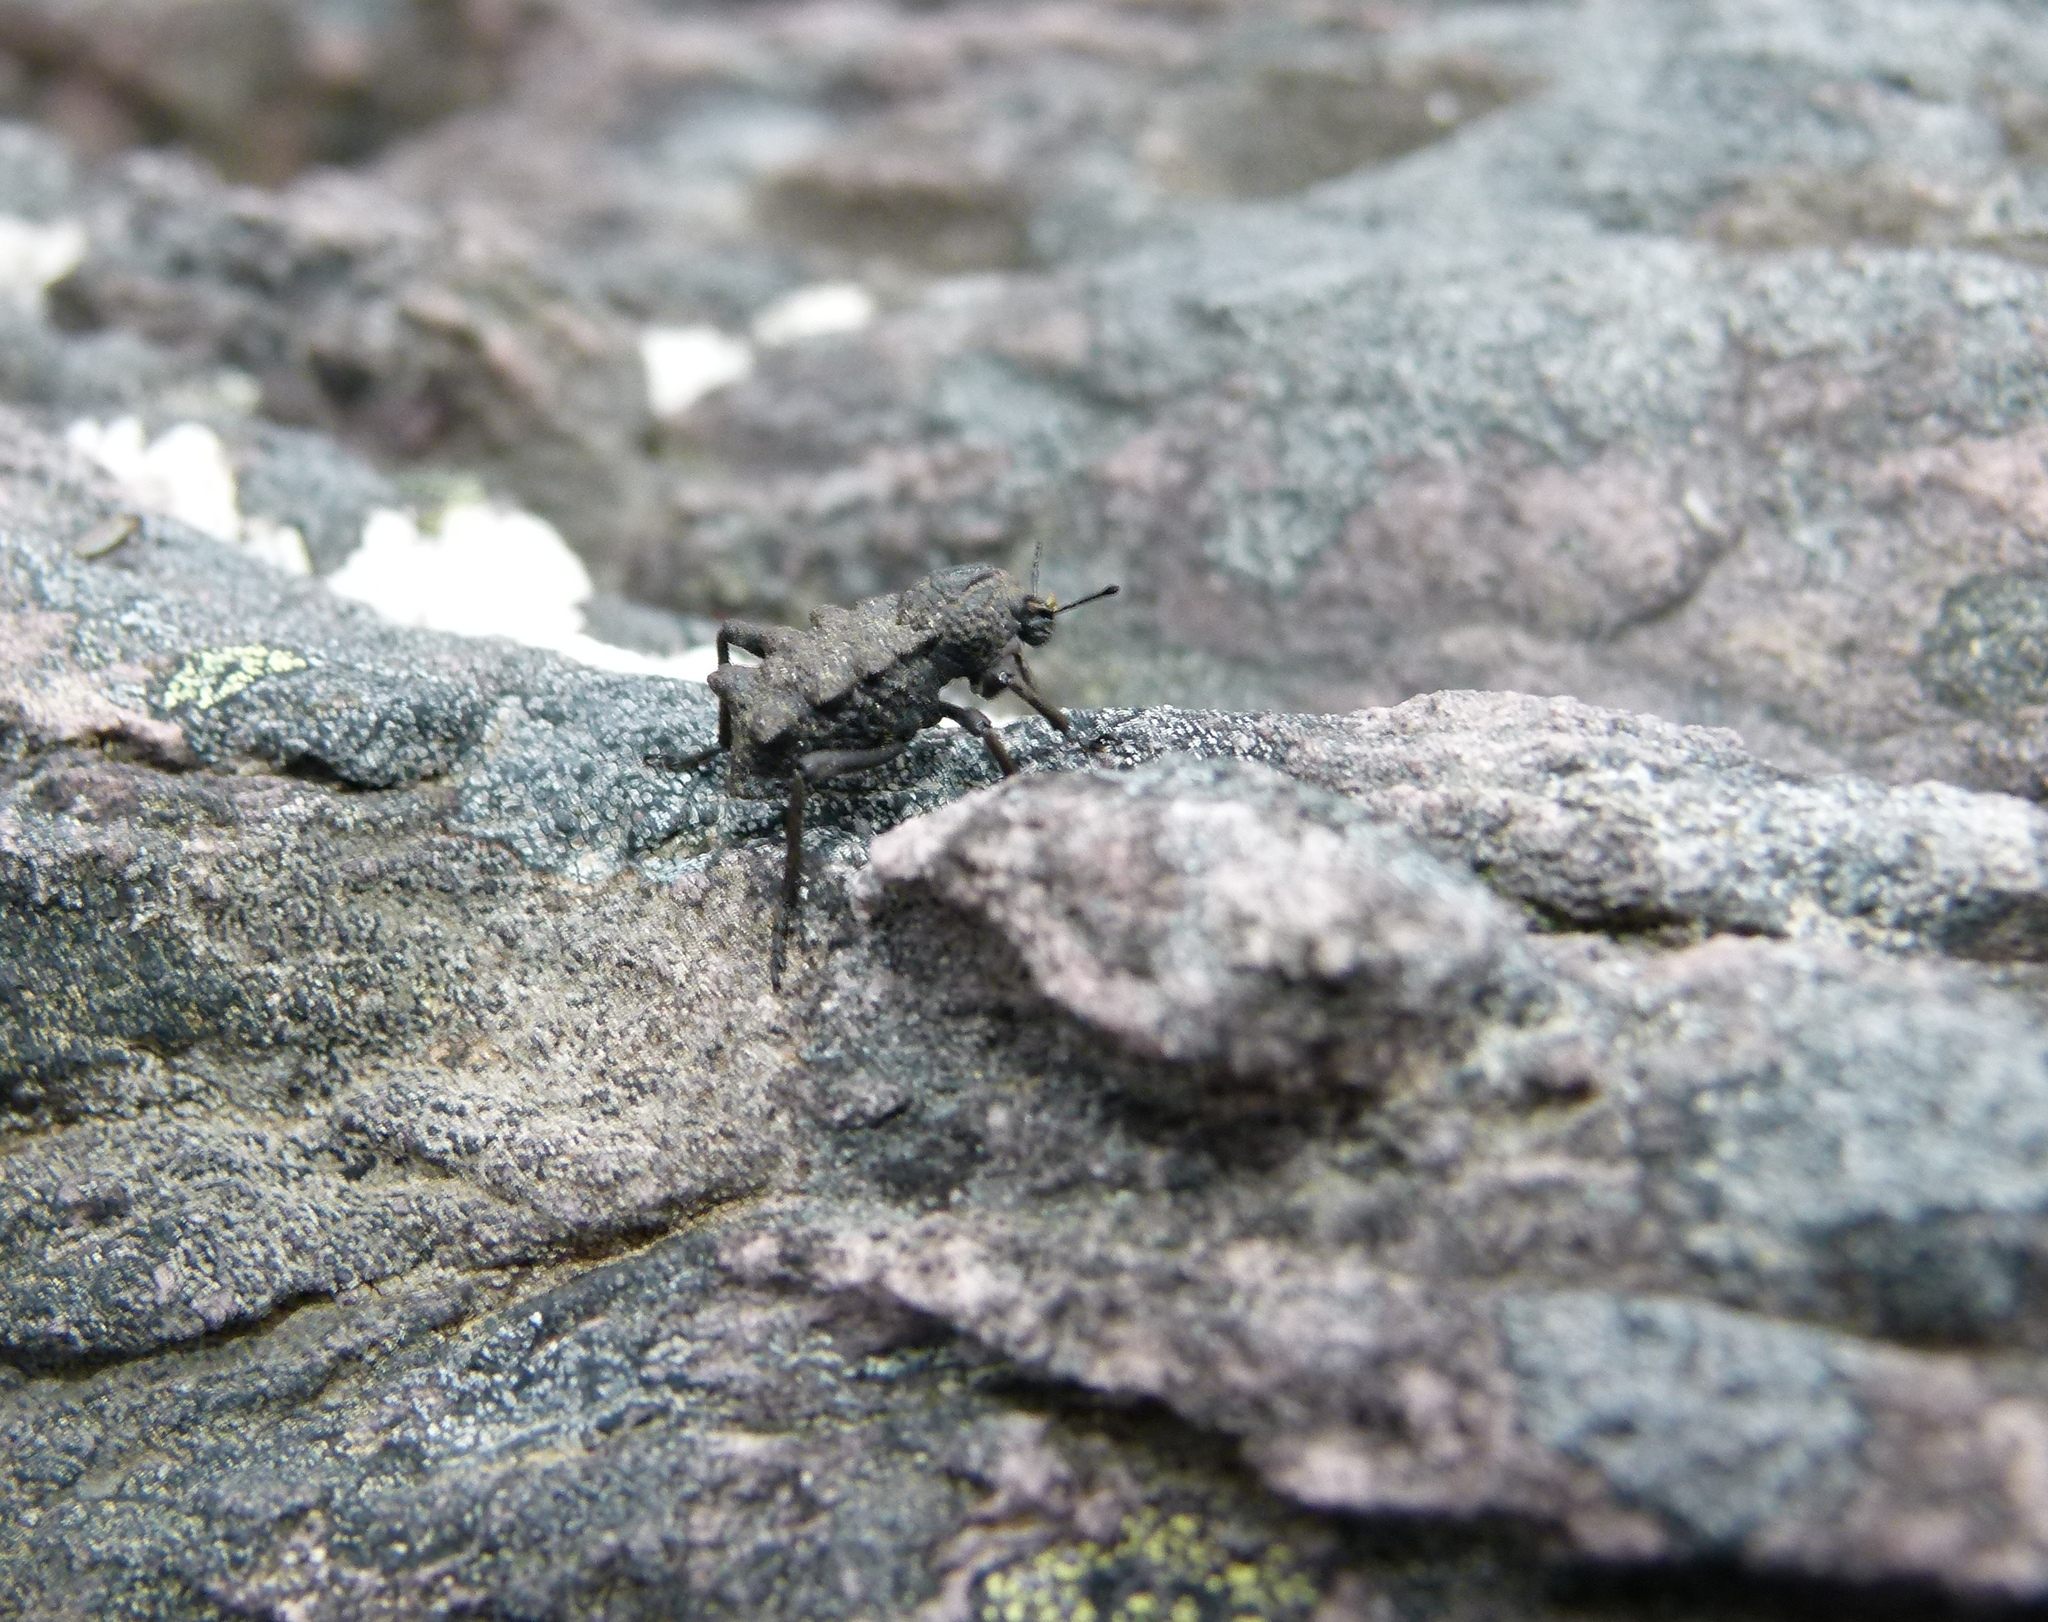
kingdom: Animalia
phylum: Arthropoda
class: Insecta
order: Coleoptera
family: Curculionidae
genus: Melanegis
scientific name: Melanegis stygius
